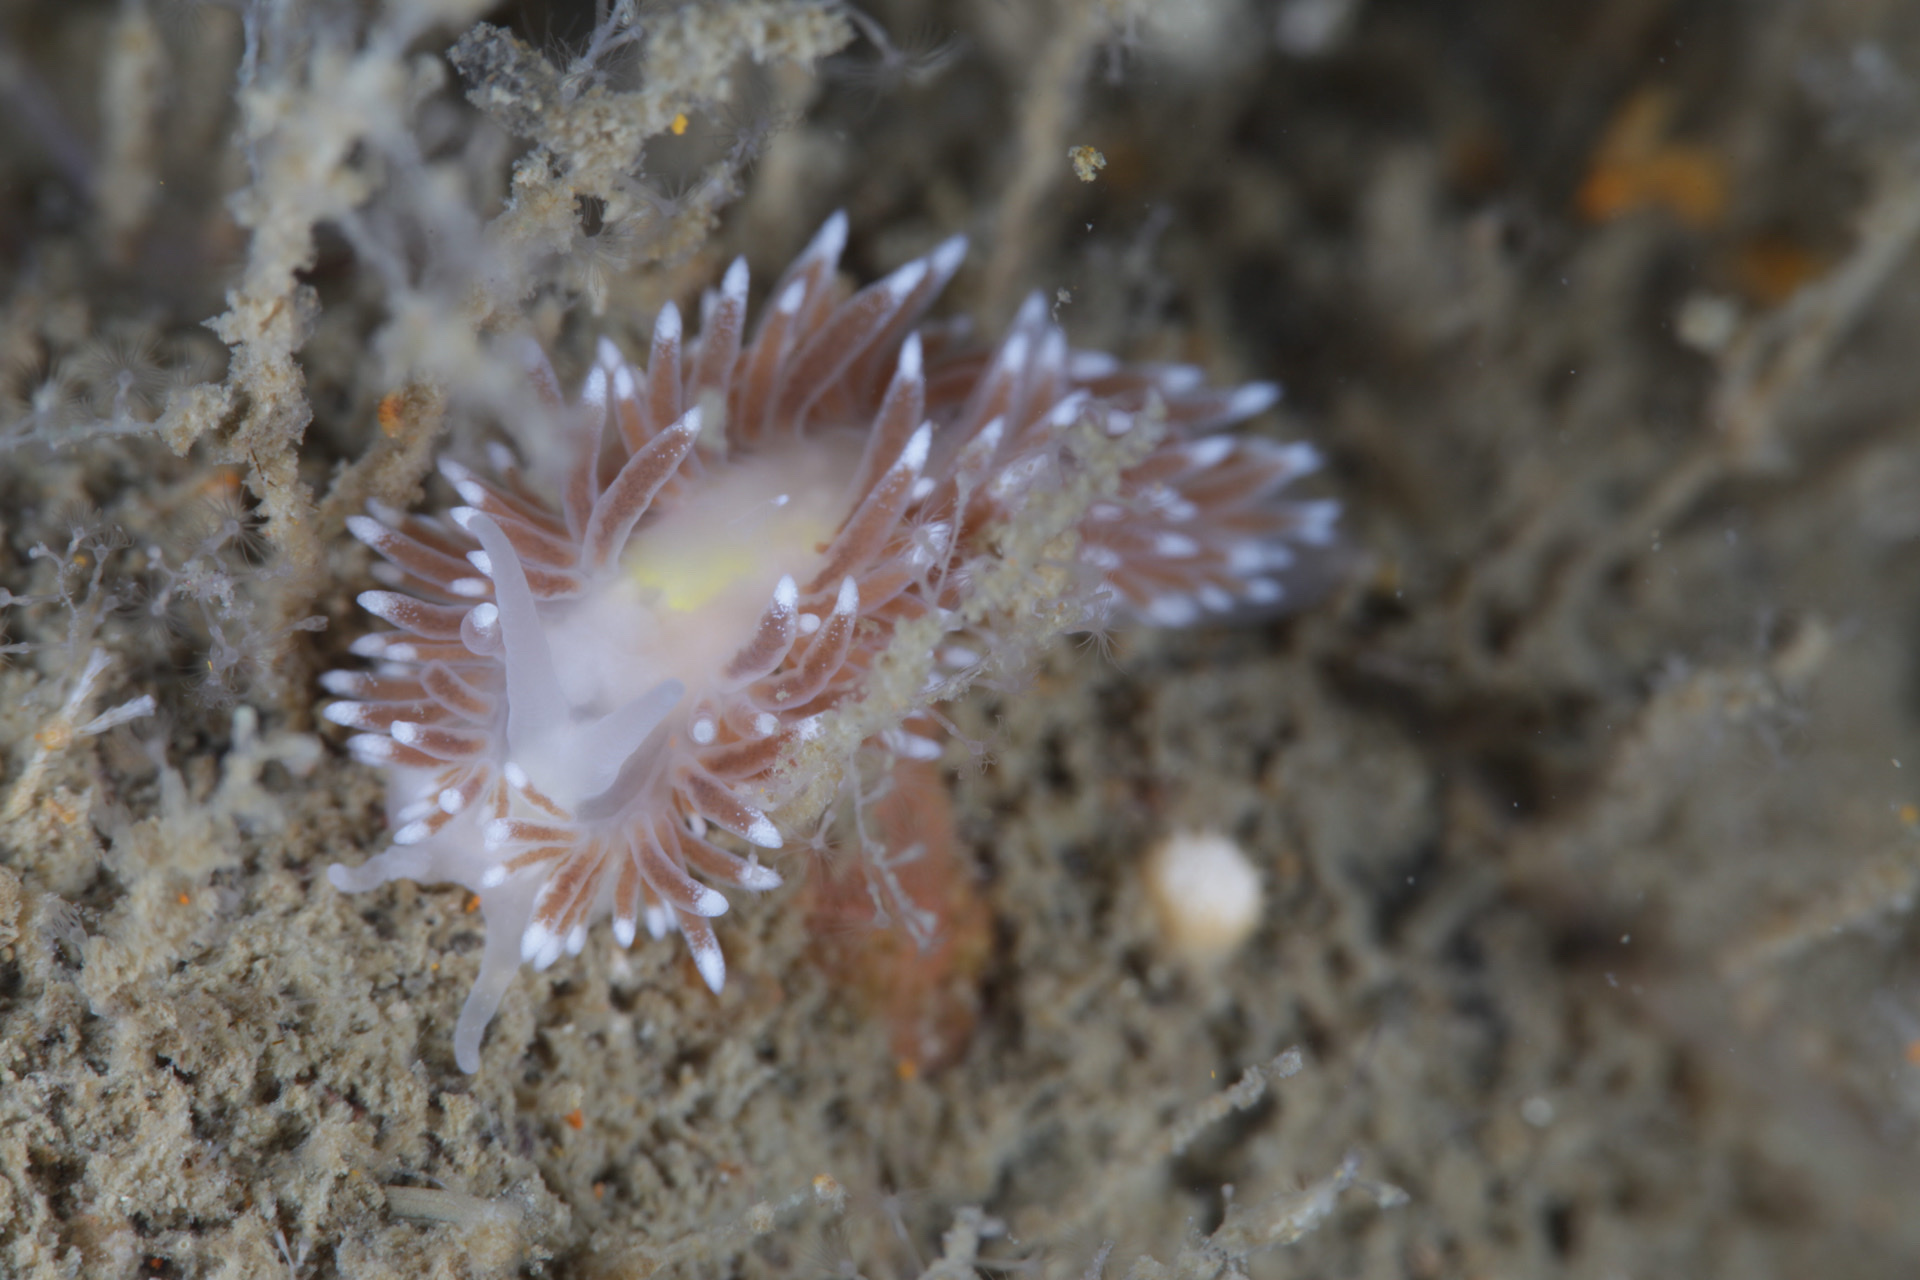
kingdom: Animalia
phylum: Mollusca
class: Gastropoda
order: Nudibranchia
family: Cuthonidae
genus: Cuthona
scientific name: Cuthona nana
